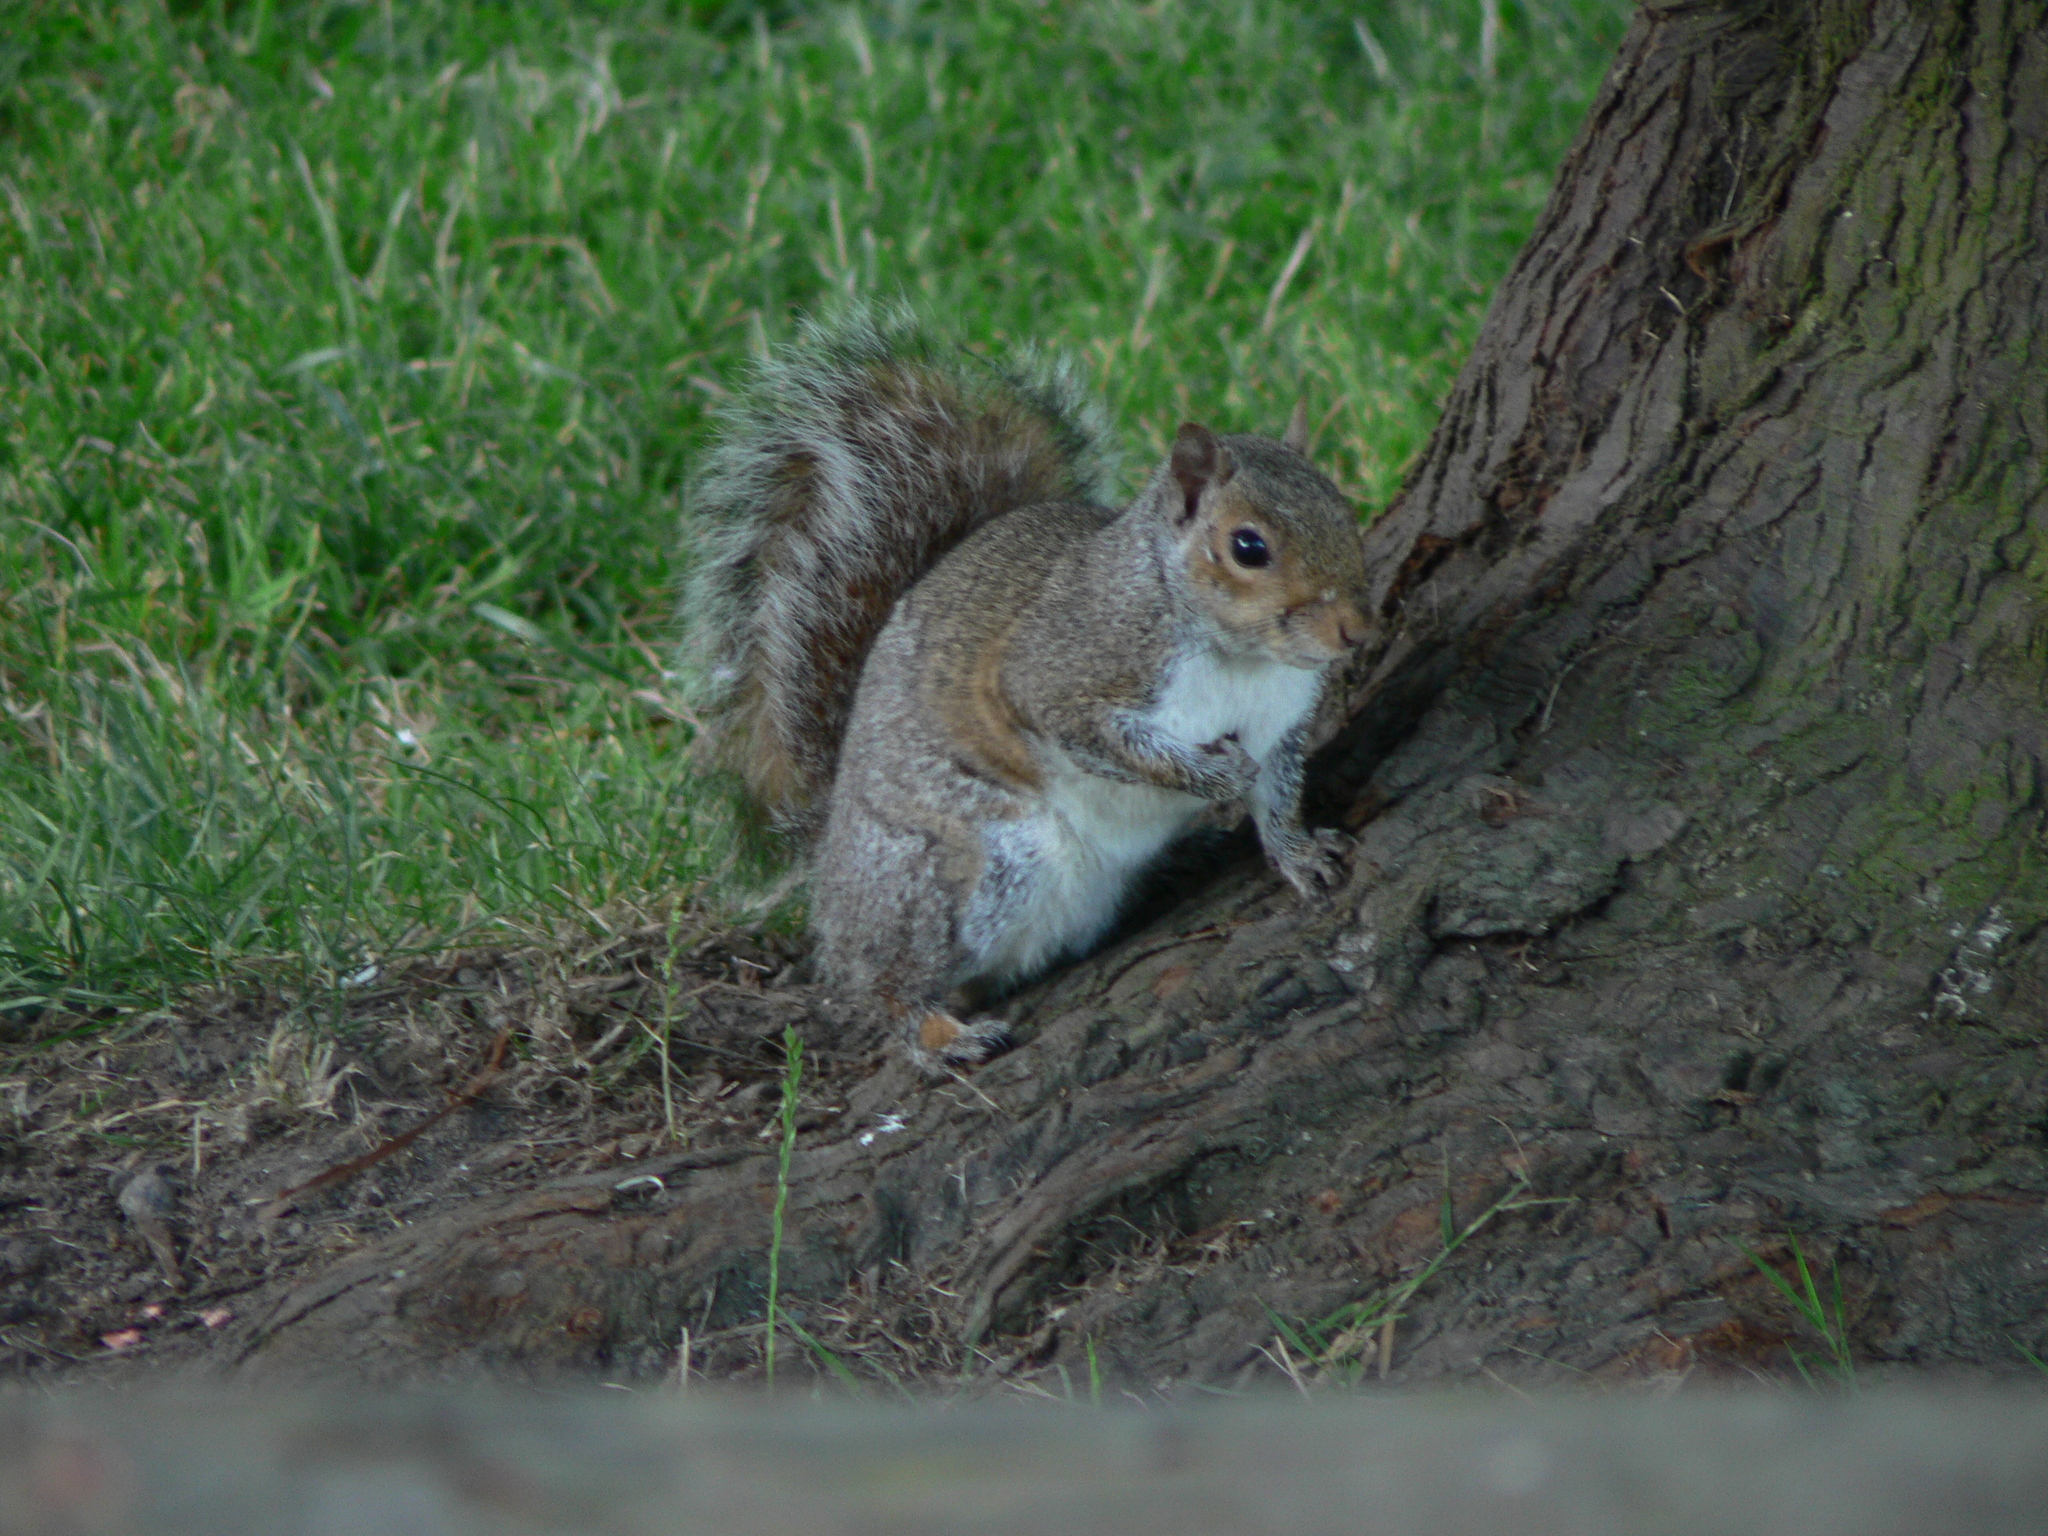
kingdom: Animalia
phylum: Chordata
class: Mammalia
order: Rodentia
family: Sciuridae
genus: Sciurus
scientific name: Sciurus carolinensis
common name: Eastern gray squirrel
